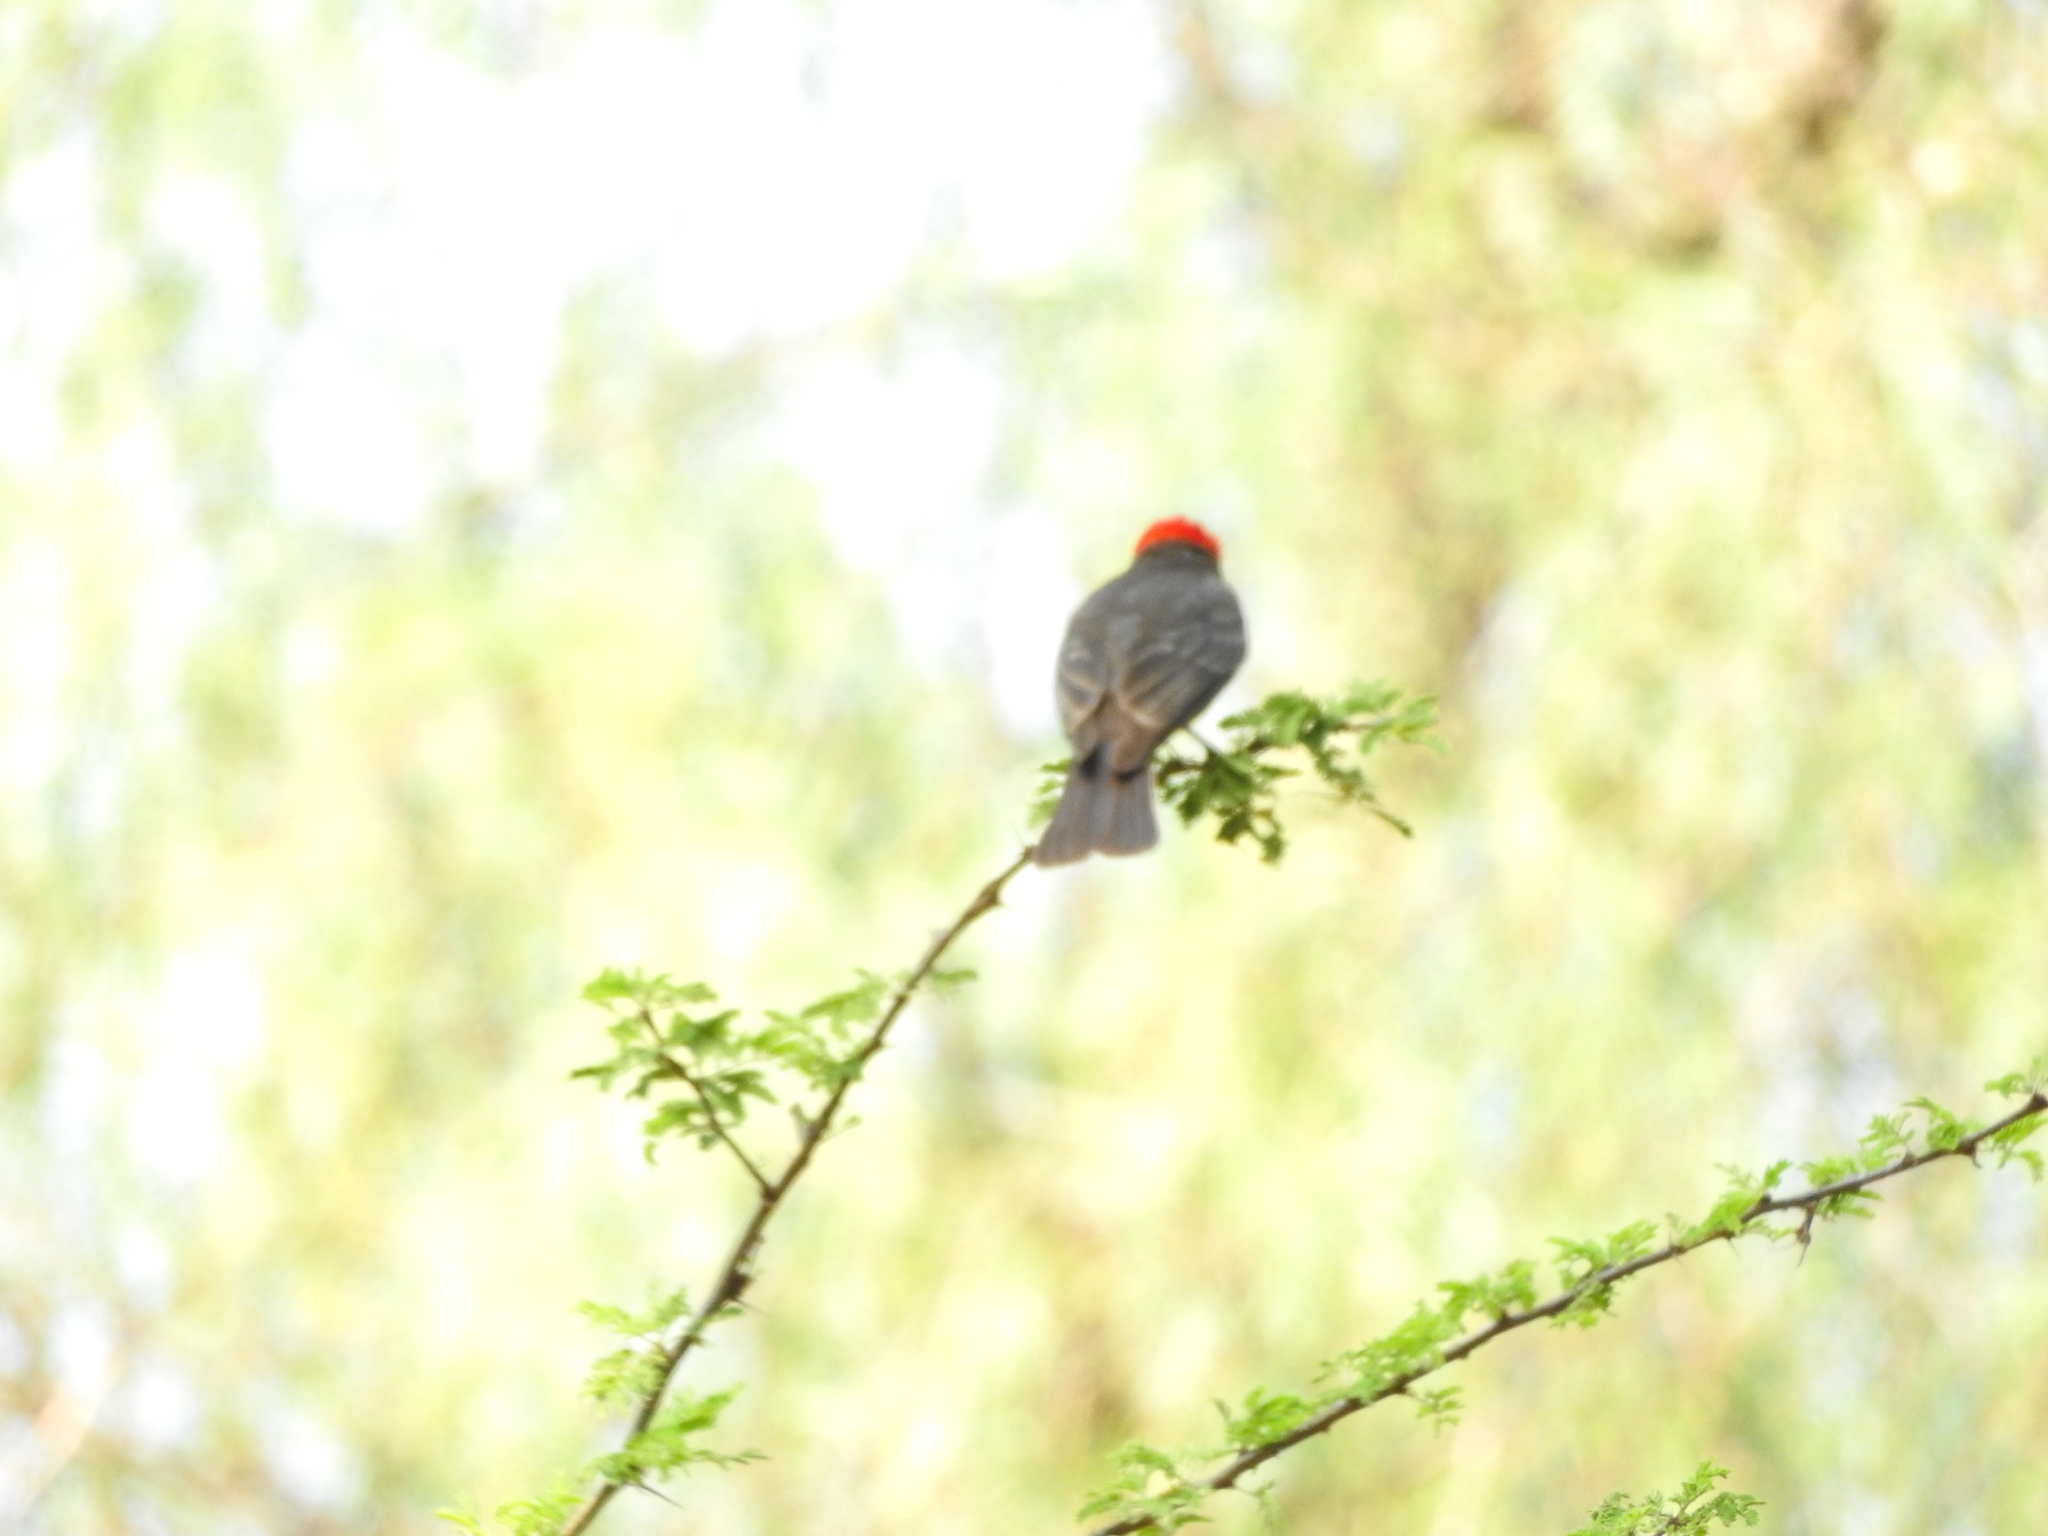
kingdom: Animalia
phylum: Chordata
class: Aves
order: Passeriformes
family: Tyrannidae
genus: Pyrocephalus
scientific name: Pyrocephalus rubinus
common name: Vermilion flycatcher
